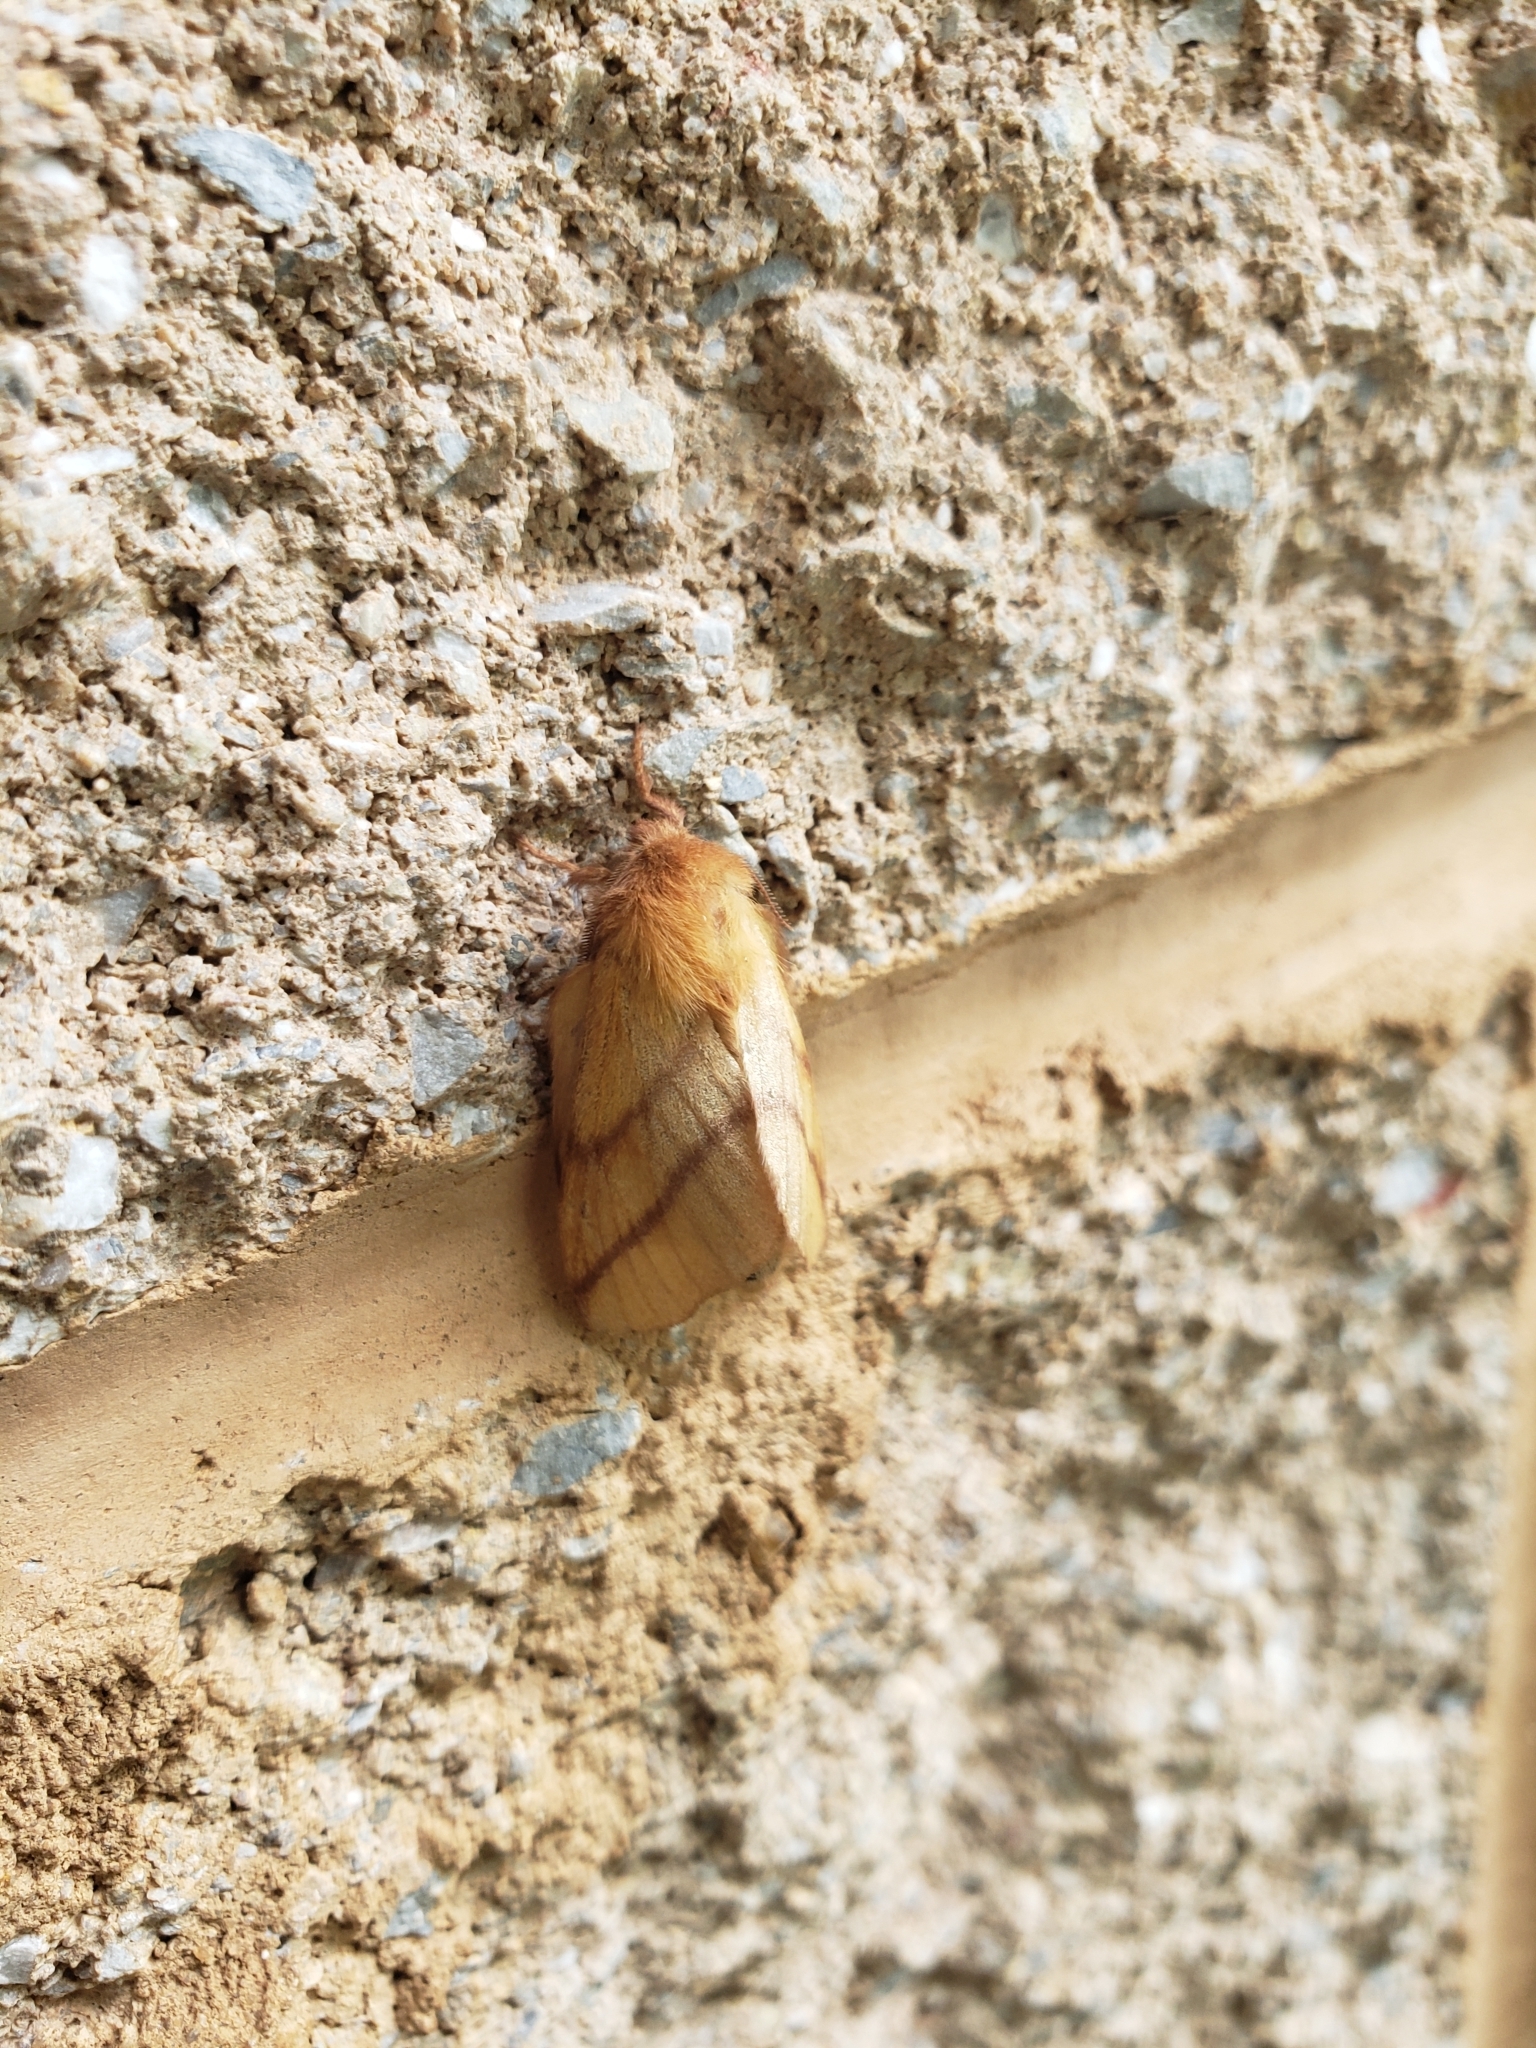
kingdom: Animalia
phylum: Arthropoda
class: Insecta
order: Lepidoptera
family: Lasiocampidae
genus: Malacosoma
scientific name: Malacosoma disstria
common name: Forest tent caterpillar
